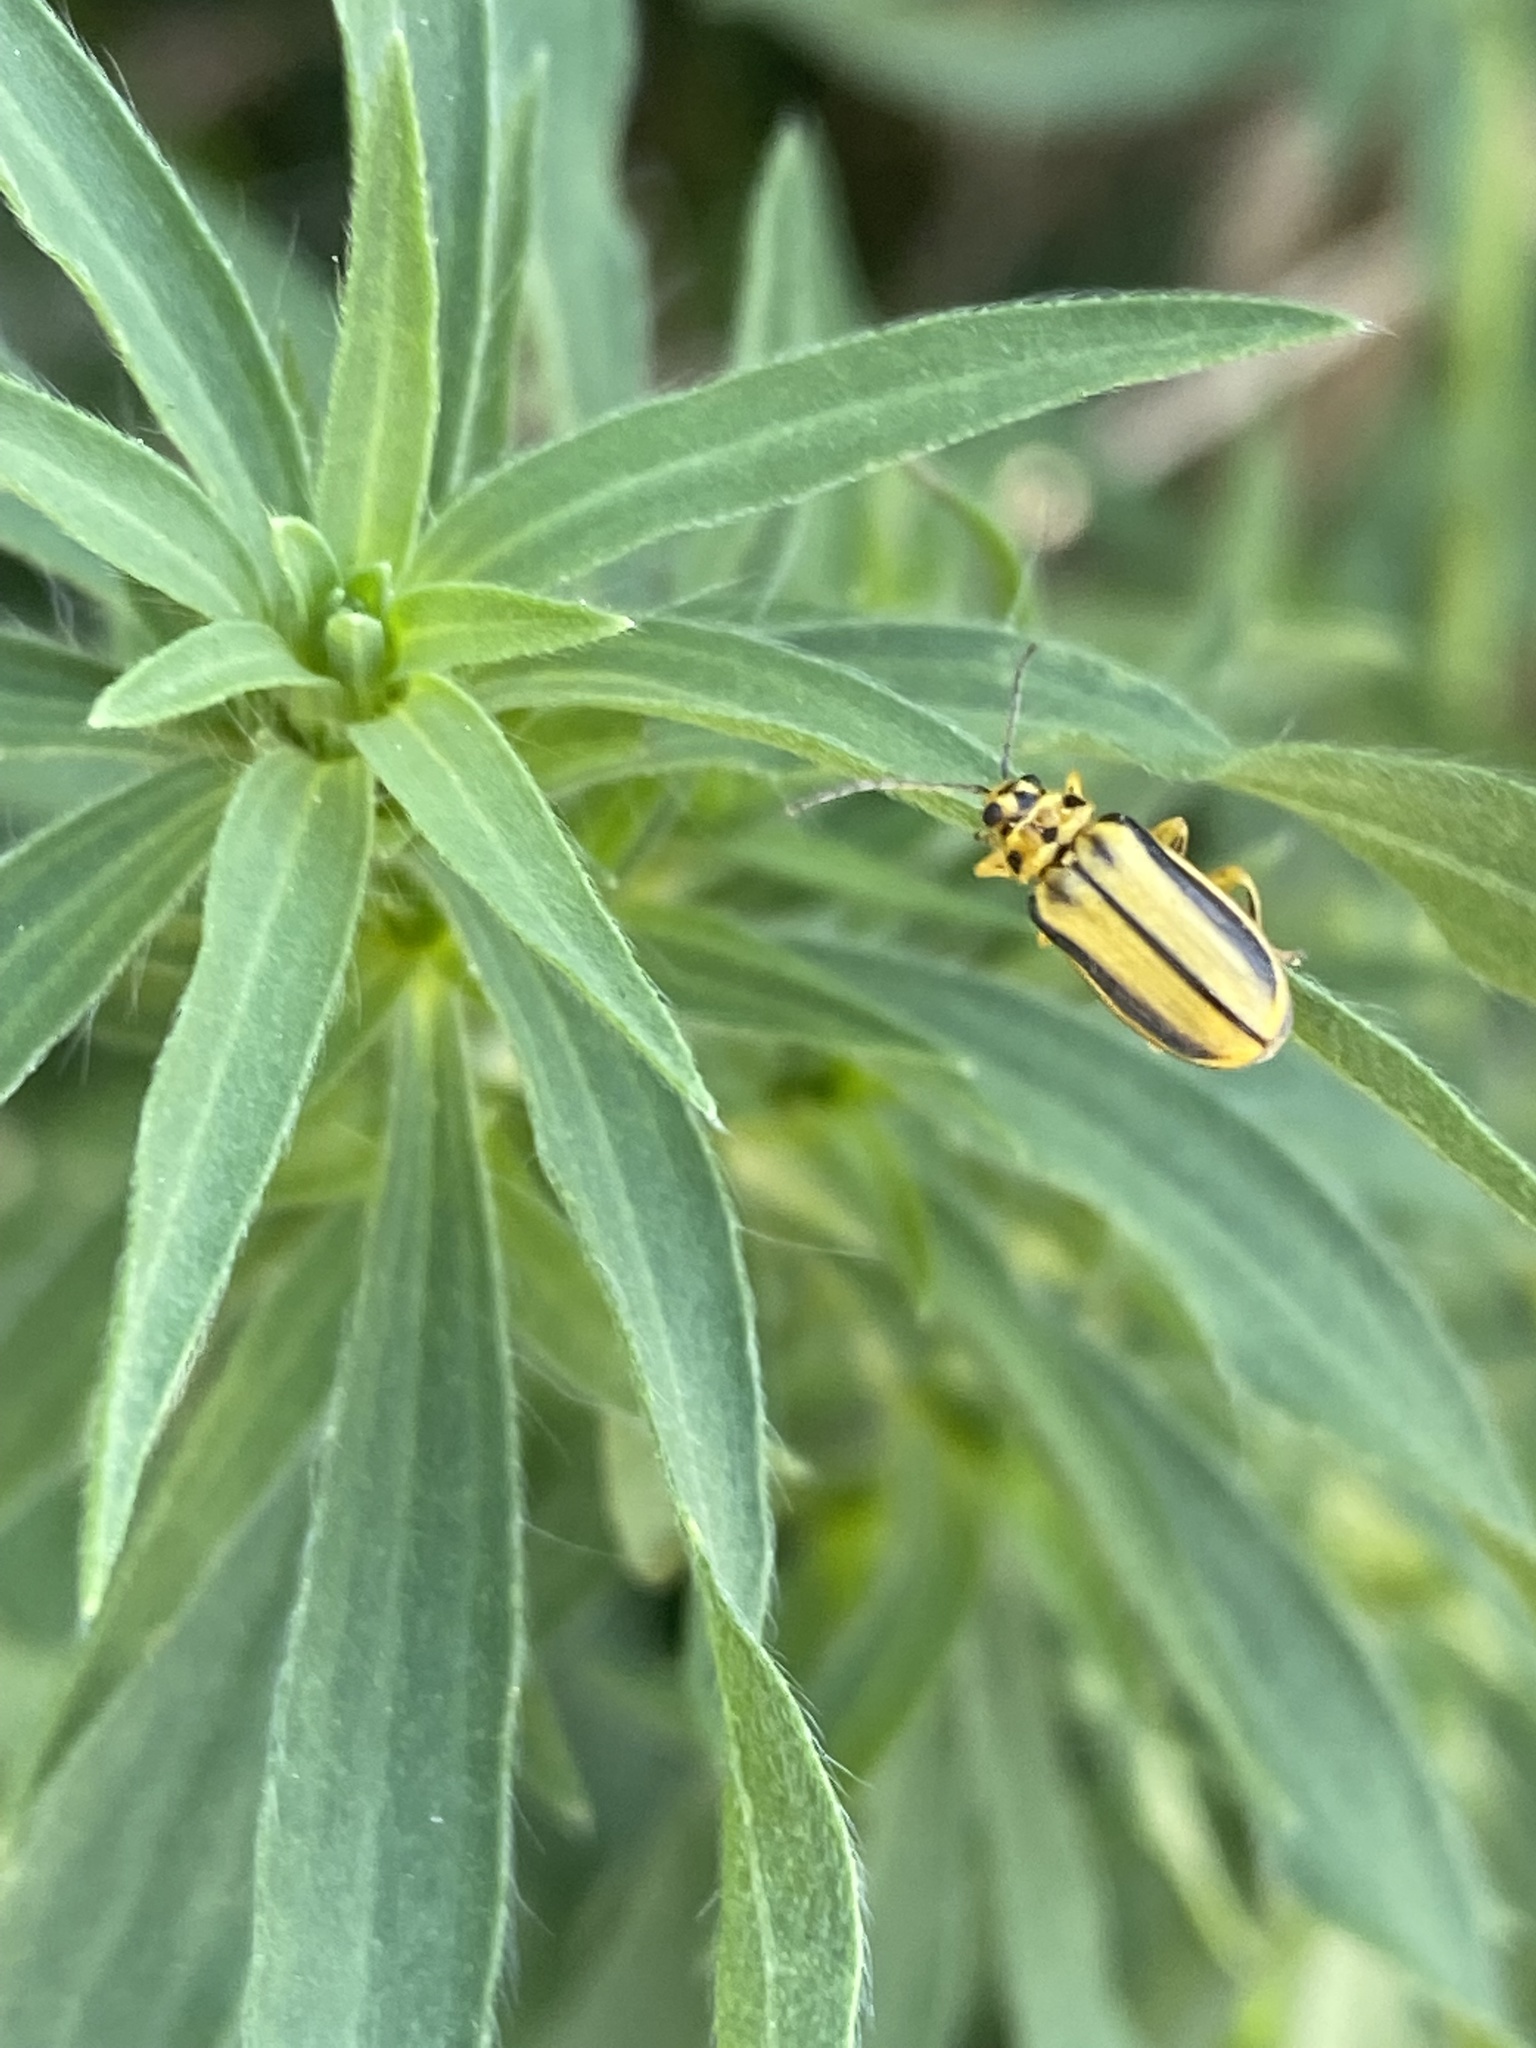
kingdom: Animalia
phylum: Arthropoda
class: Insecta
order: Coleoptera
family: Chrysomelidae
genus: Xanthogaleruca
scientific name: Xanthogaleruca luteola
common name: Elm leaf beetle
